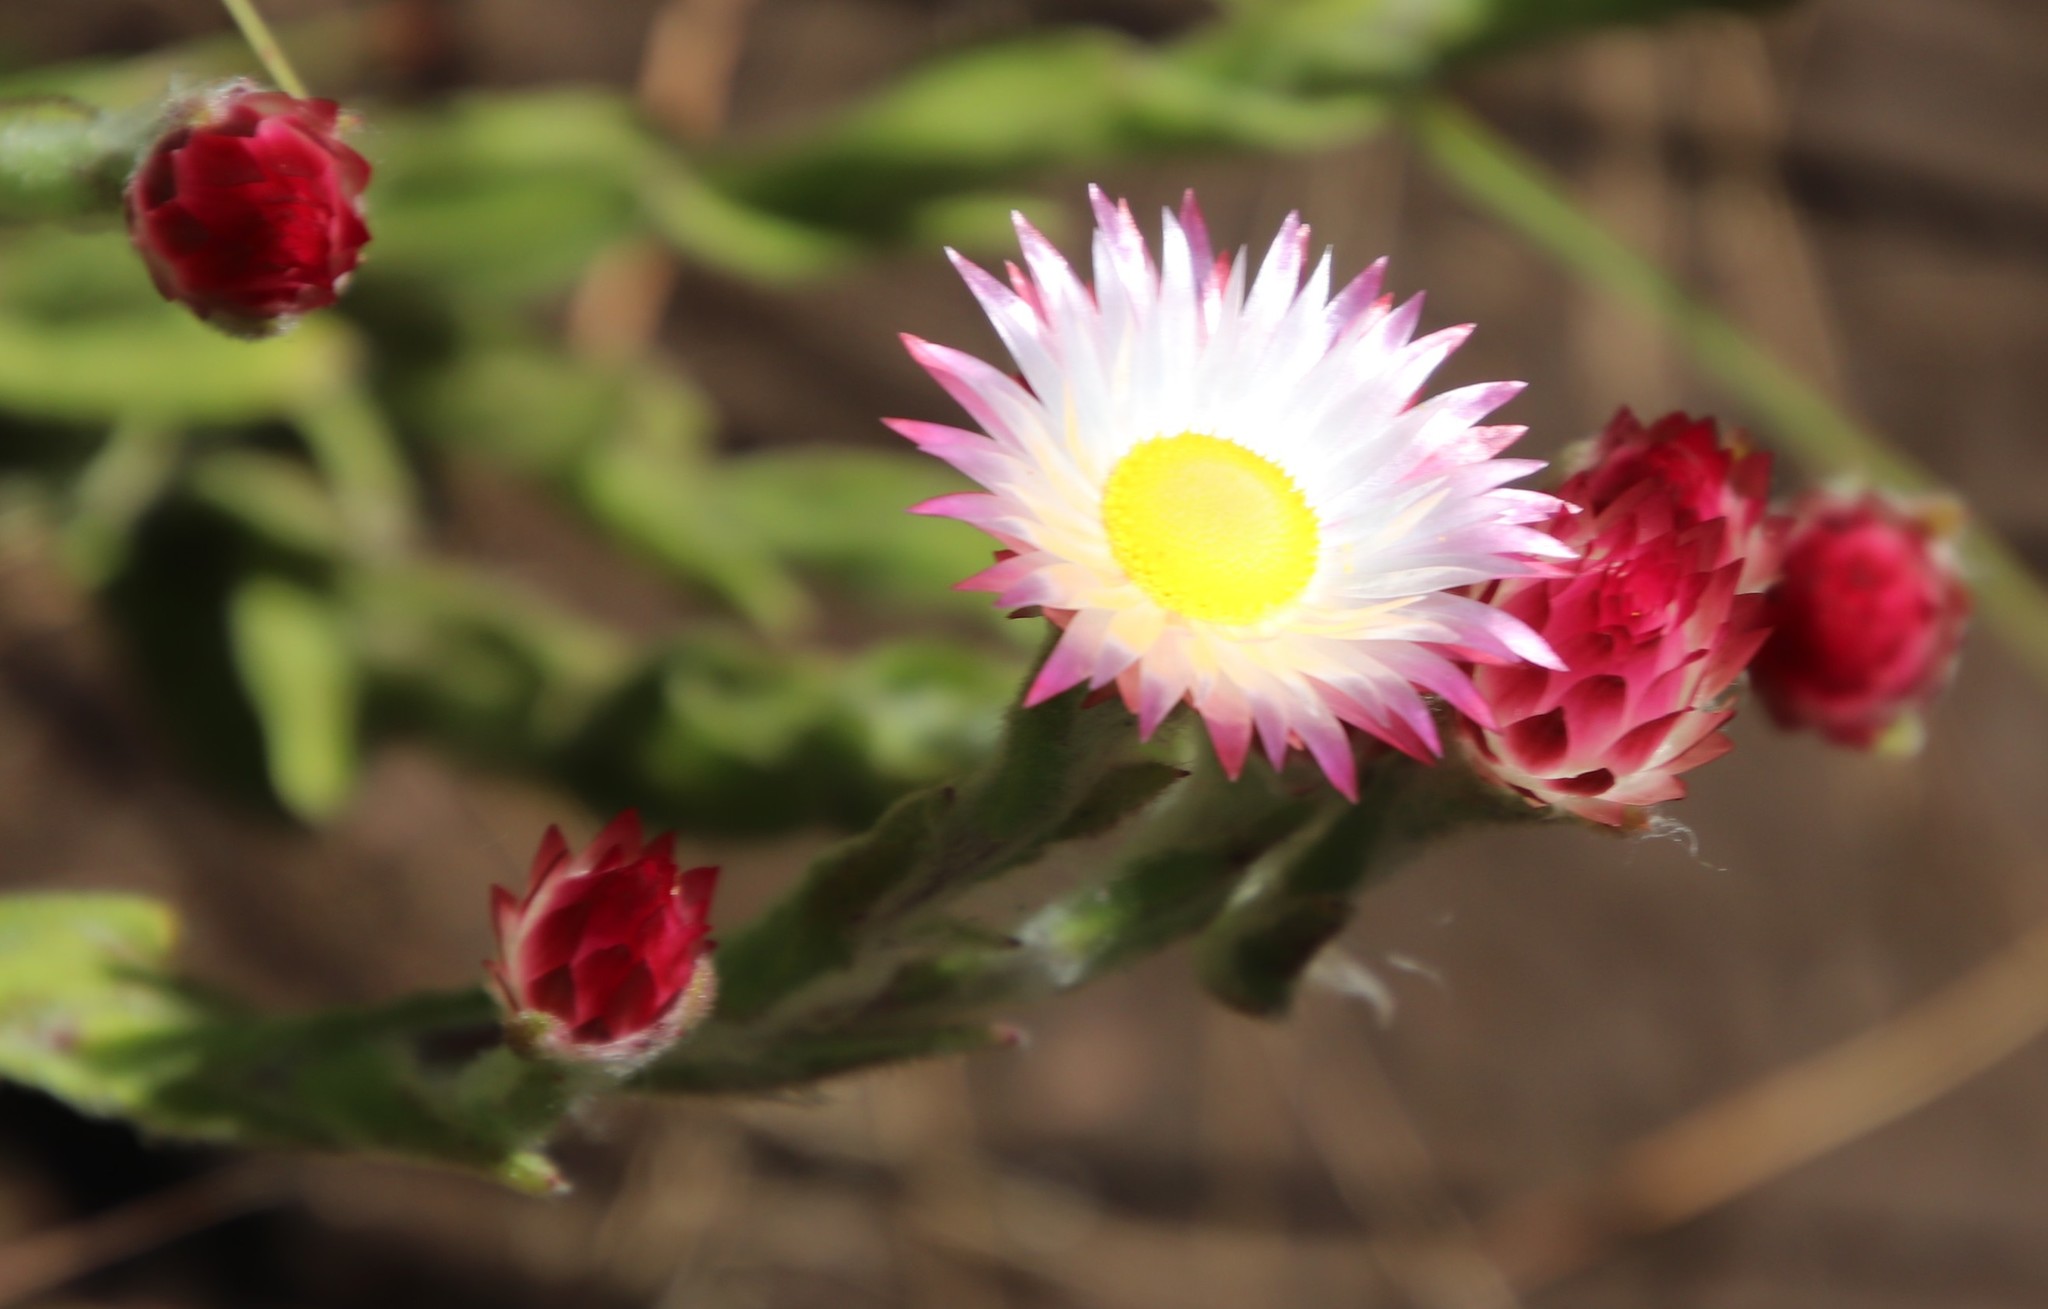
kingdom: Plantae
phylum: Tracheophyta
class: Magnoliopsida
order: Asterales
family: Asteraceae
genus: Helichrysum
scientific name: Helichrysum adenocarpum
